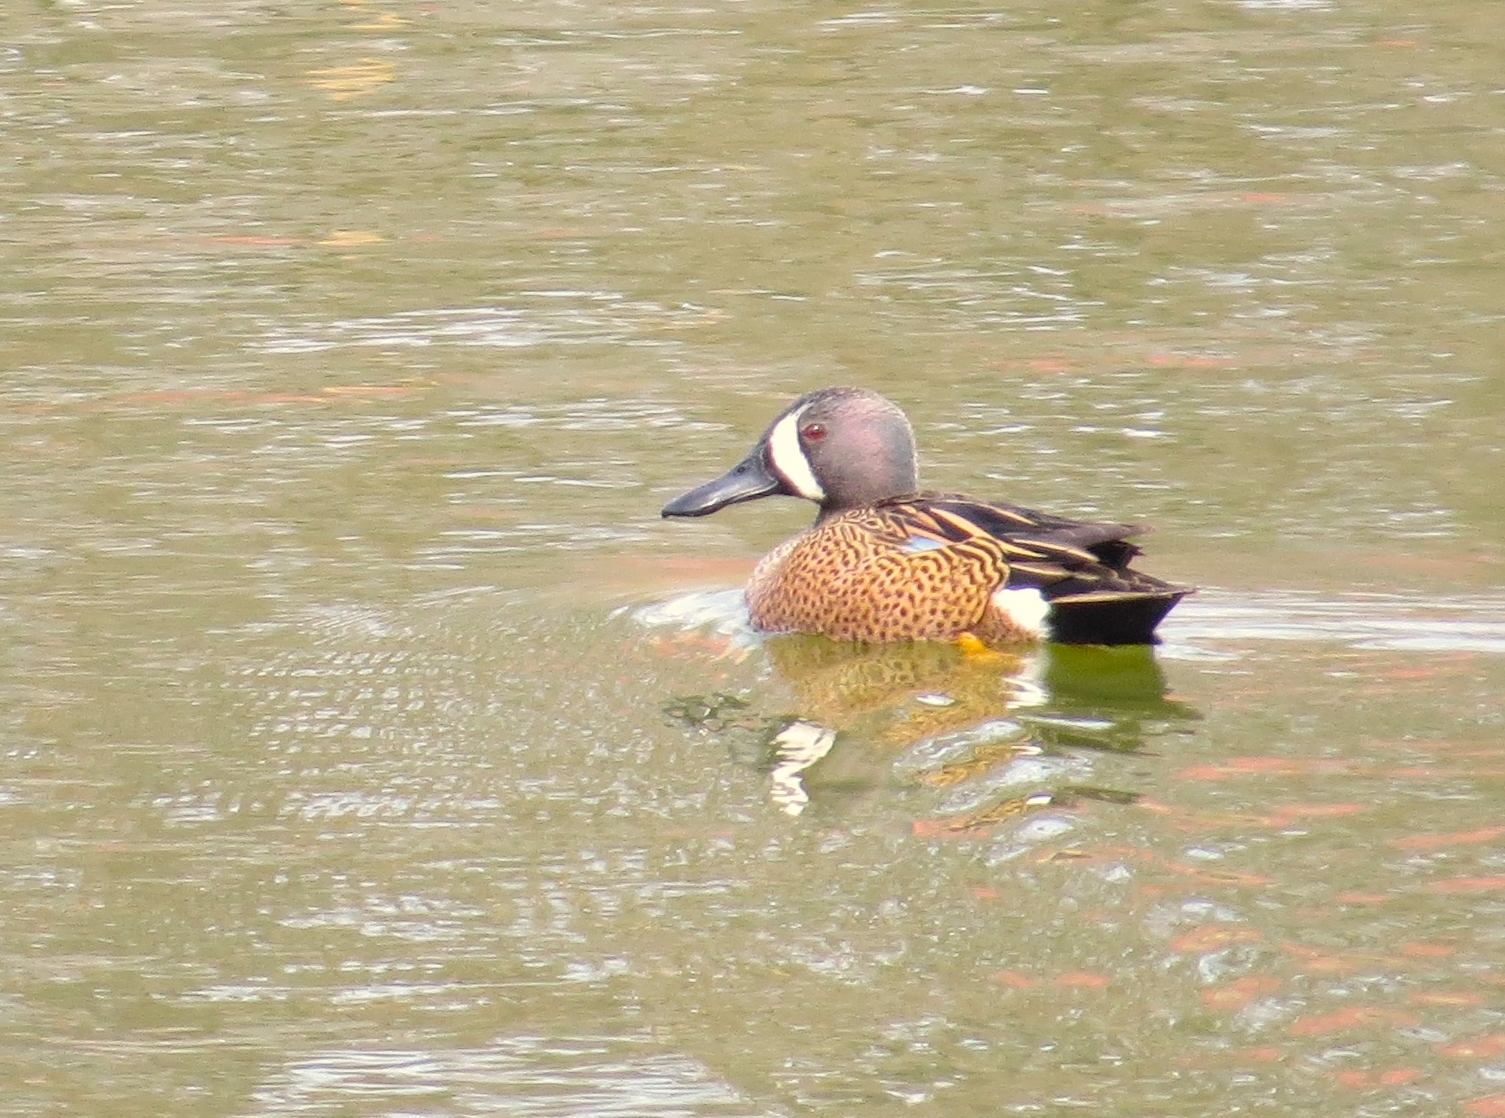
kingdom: Animalia
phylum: Chordata
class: Aves
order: Anseriformes
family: Anatidae
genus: Spatula
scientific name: Spatula discors
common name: Blue-winged teal
